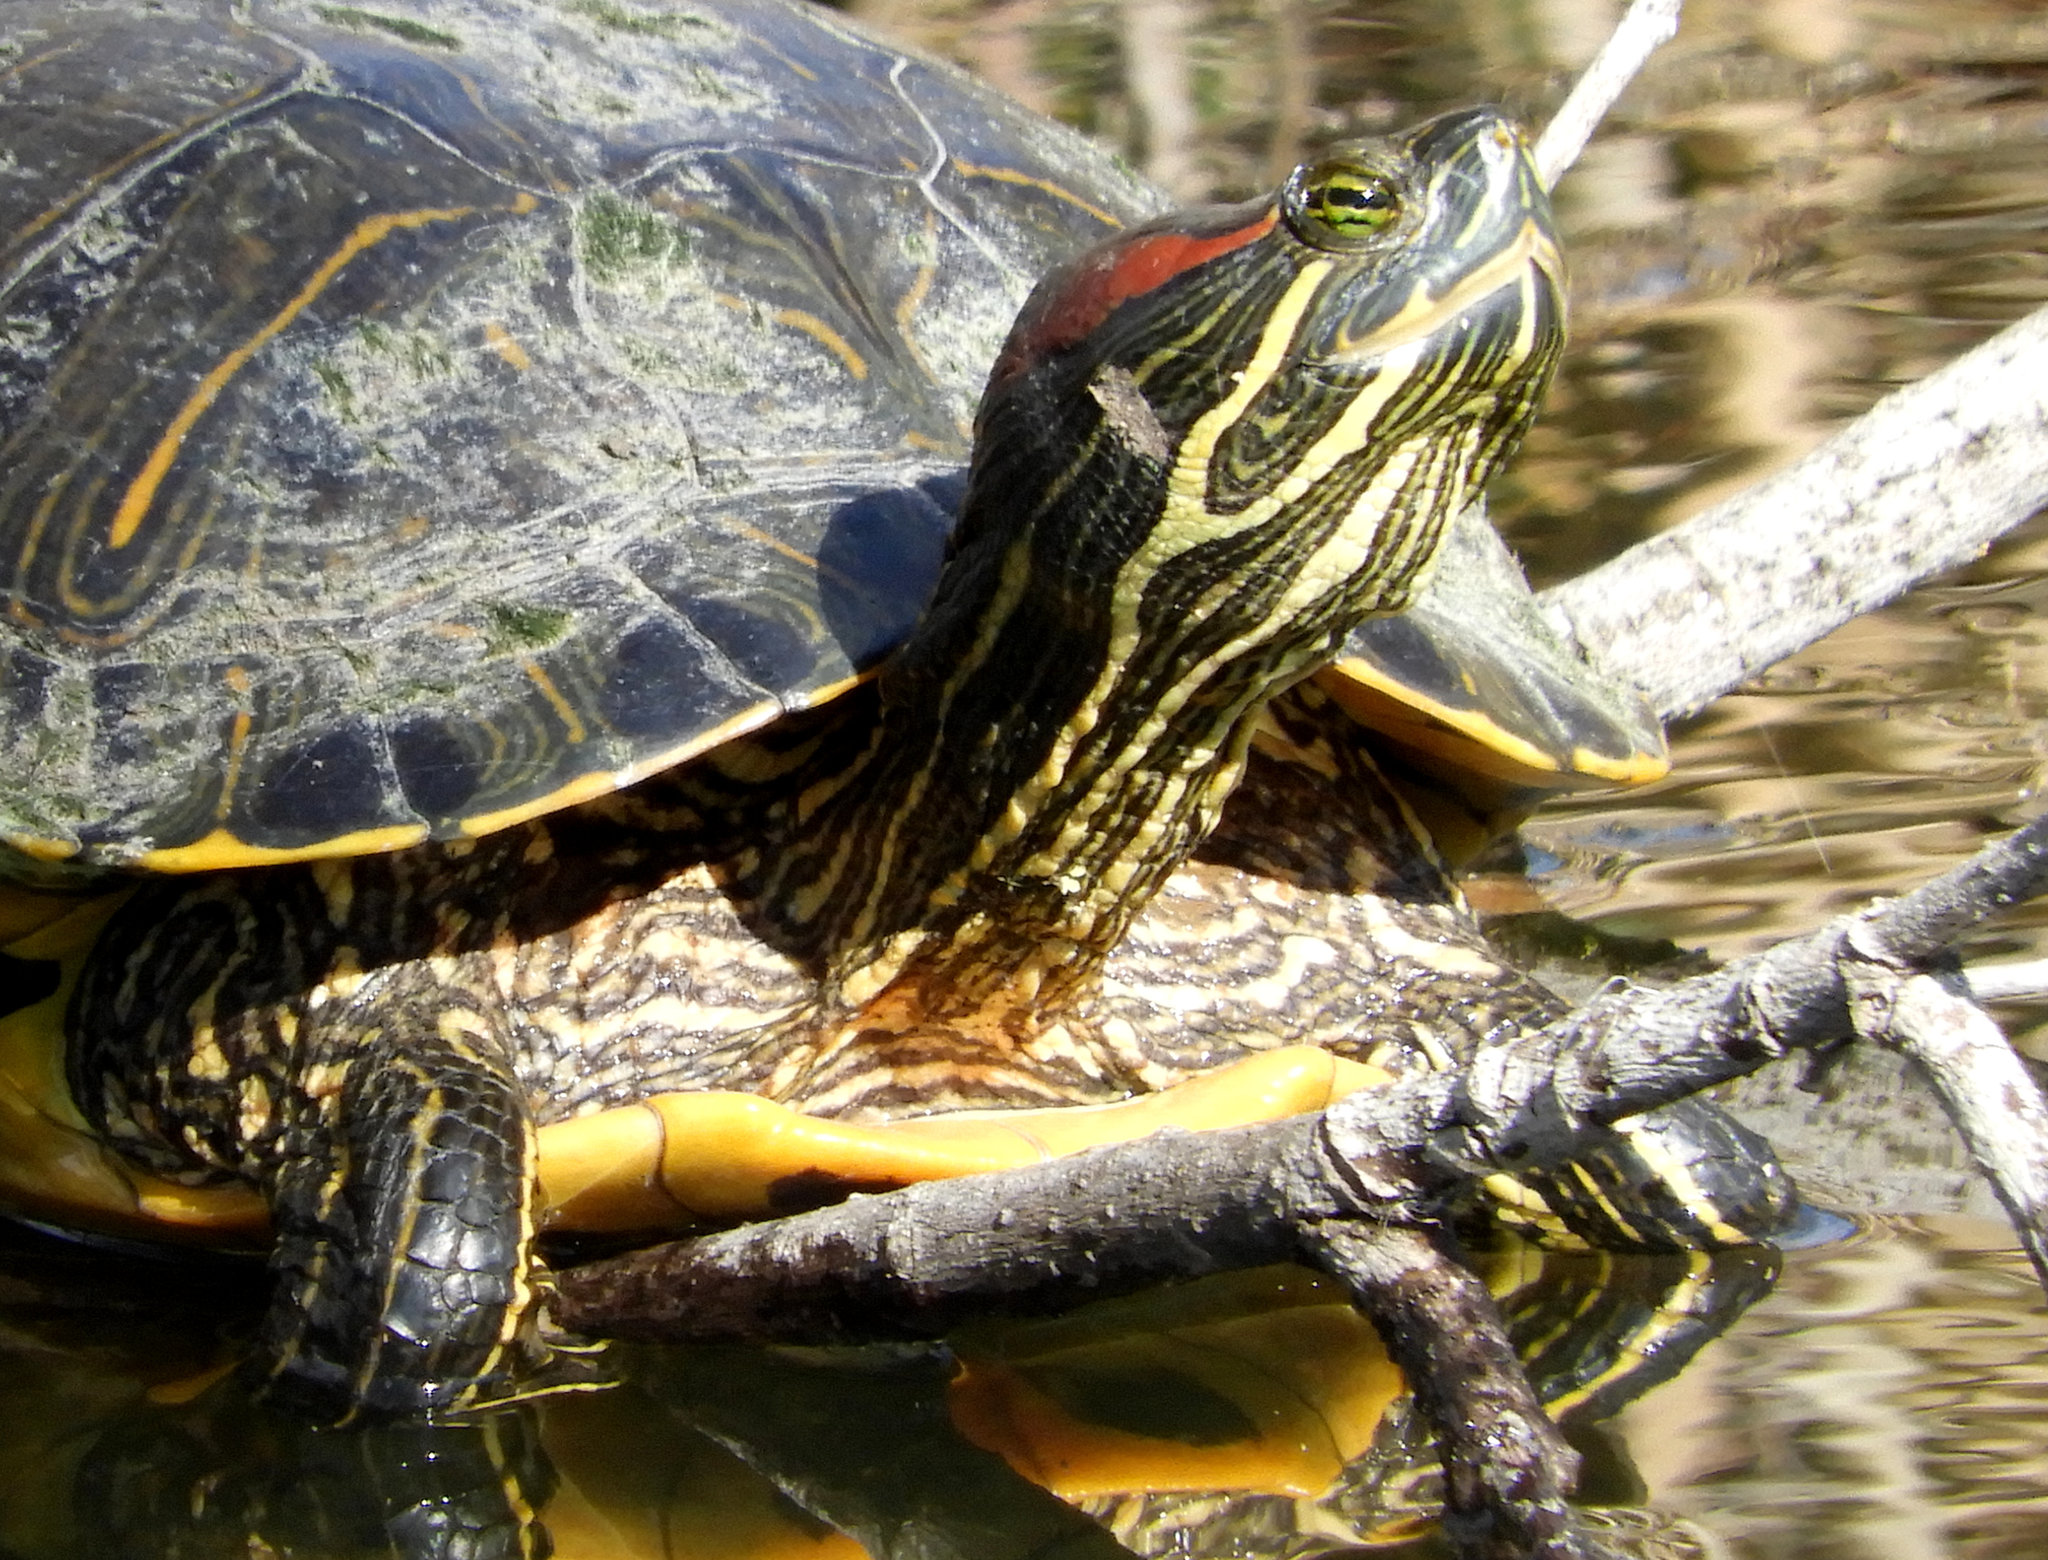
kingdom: Animalia
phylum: Chordata
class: Testudines
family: Emydidae
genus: Trachemys
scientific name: Trachemys scripta
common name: Slider
